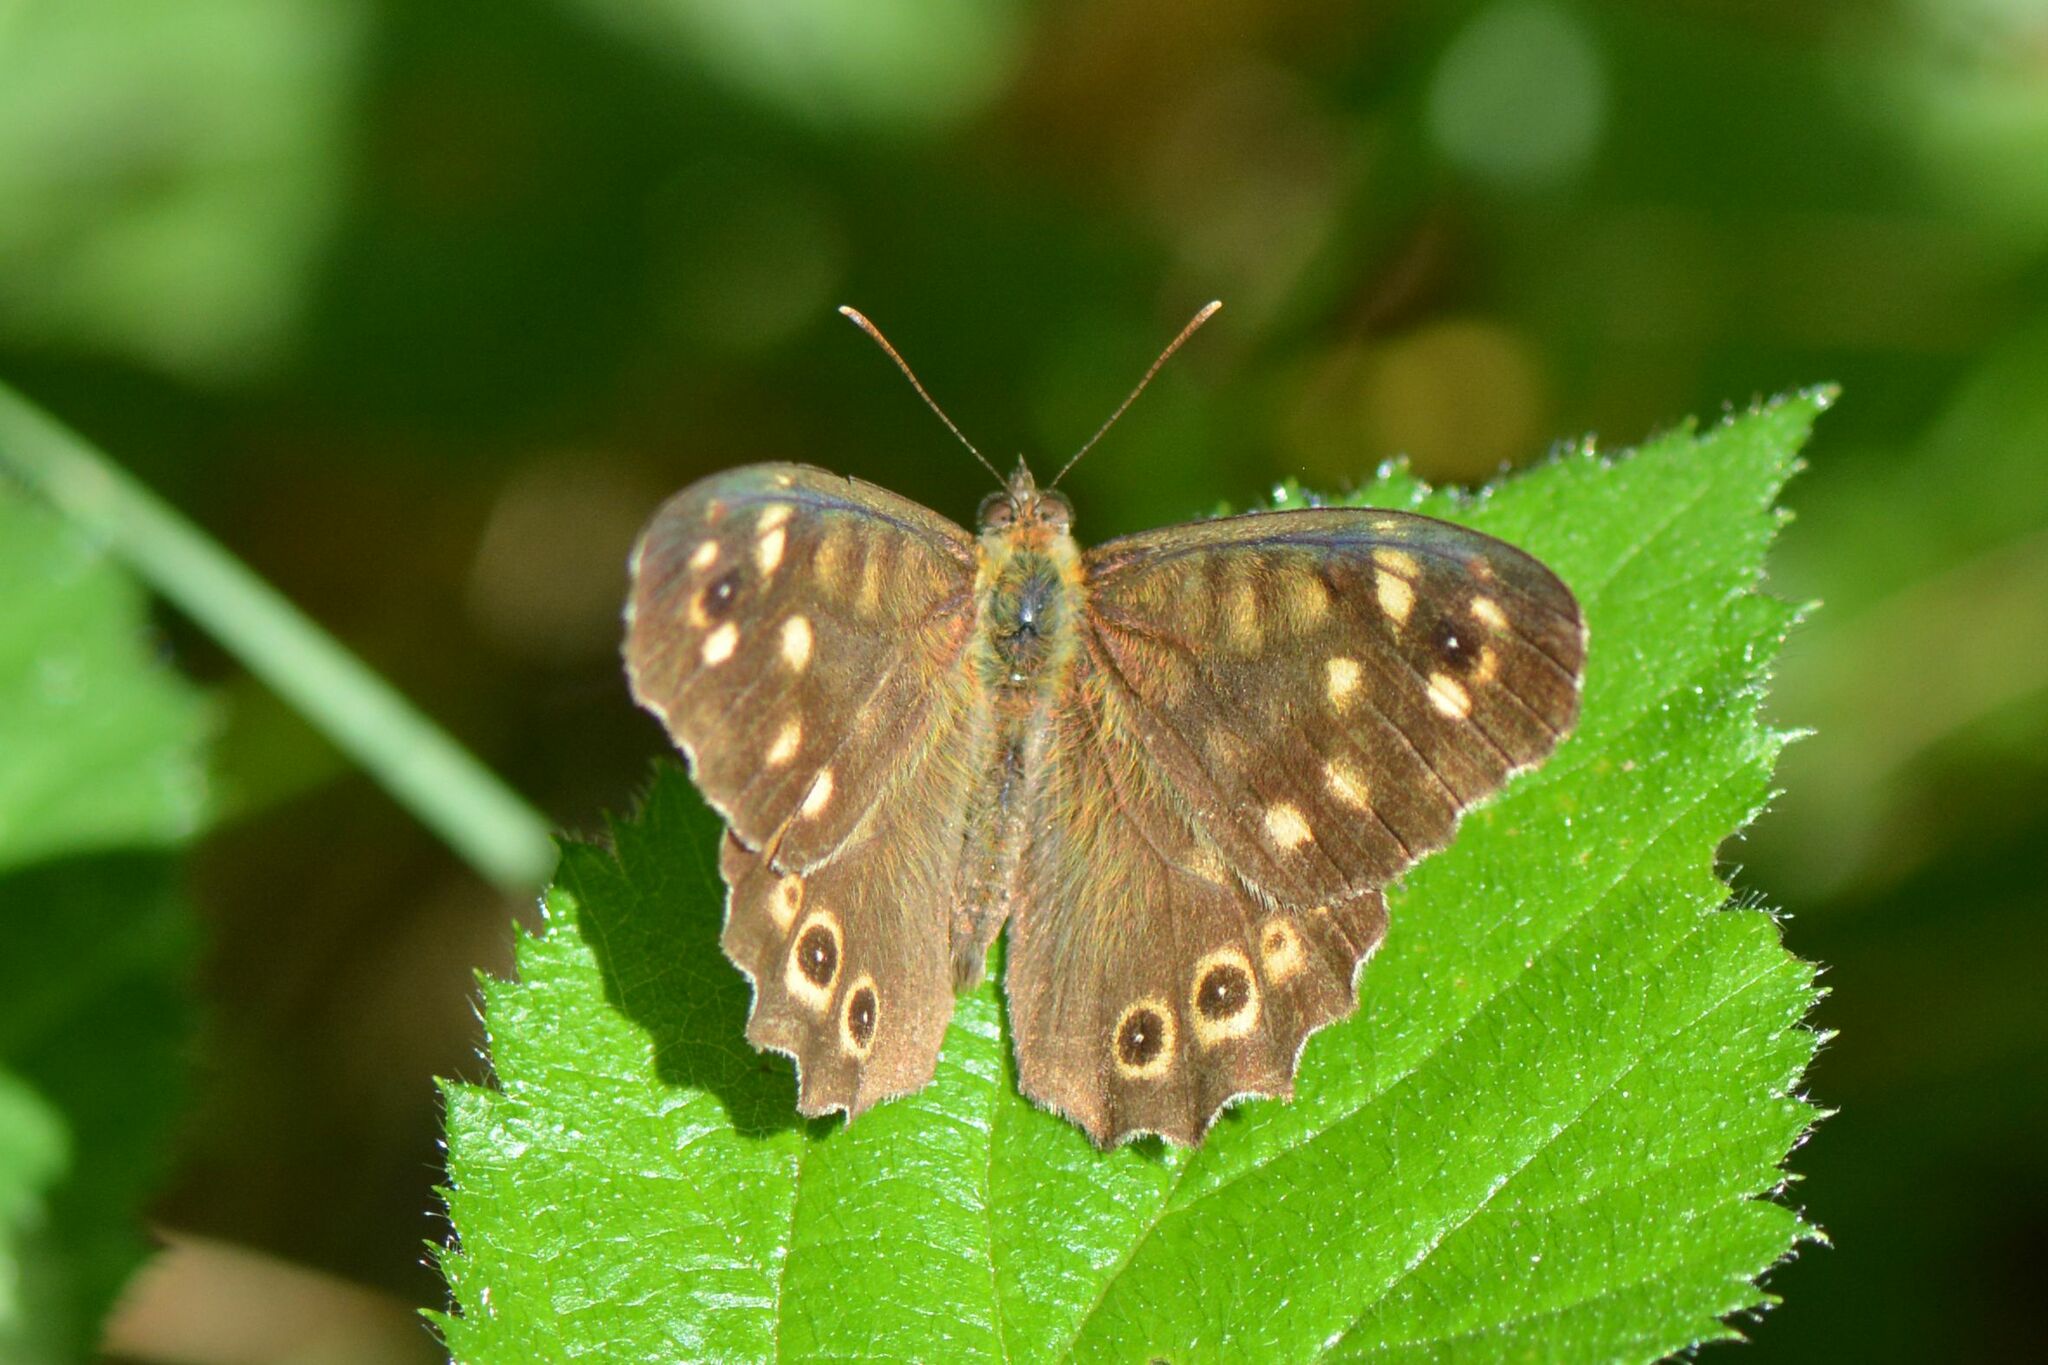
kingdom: Animalia
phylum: Arthropoda
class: Insecta
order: Lepidoptera
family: Nymphalidae
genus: Pararge
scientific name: Pararge aegeria
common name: Speckled wood
